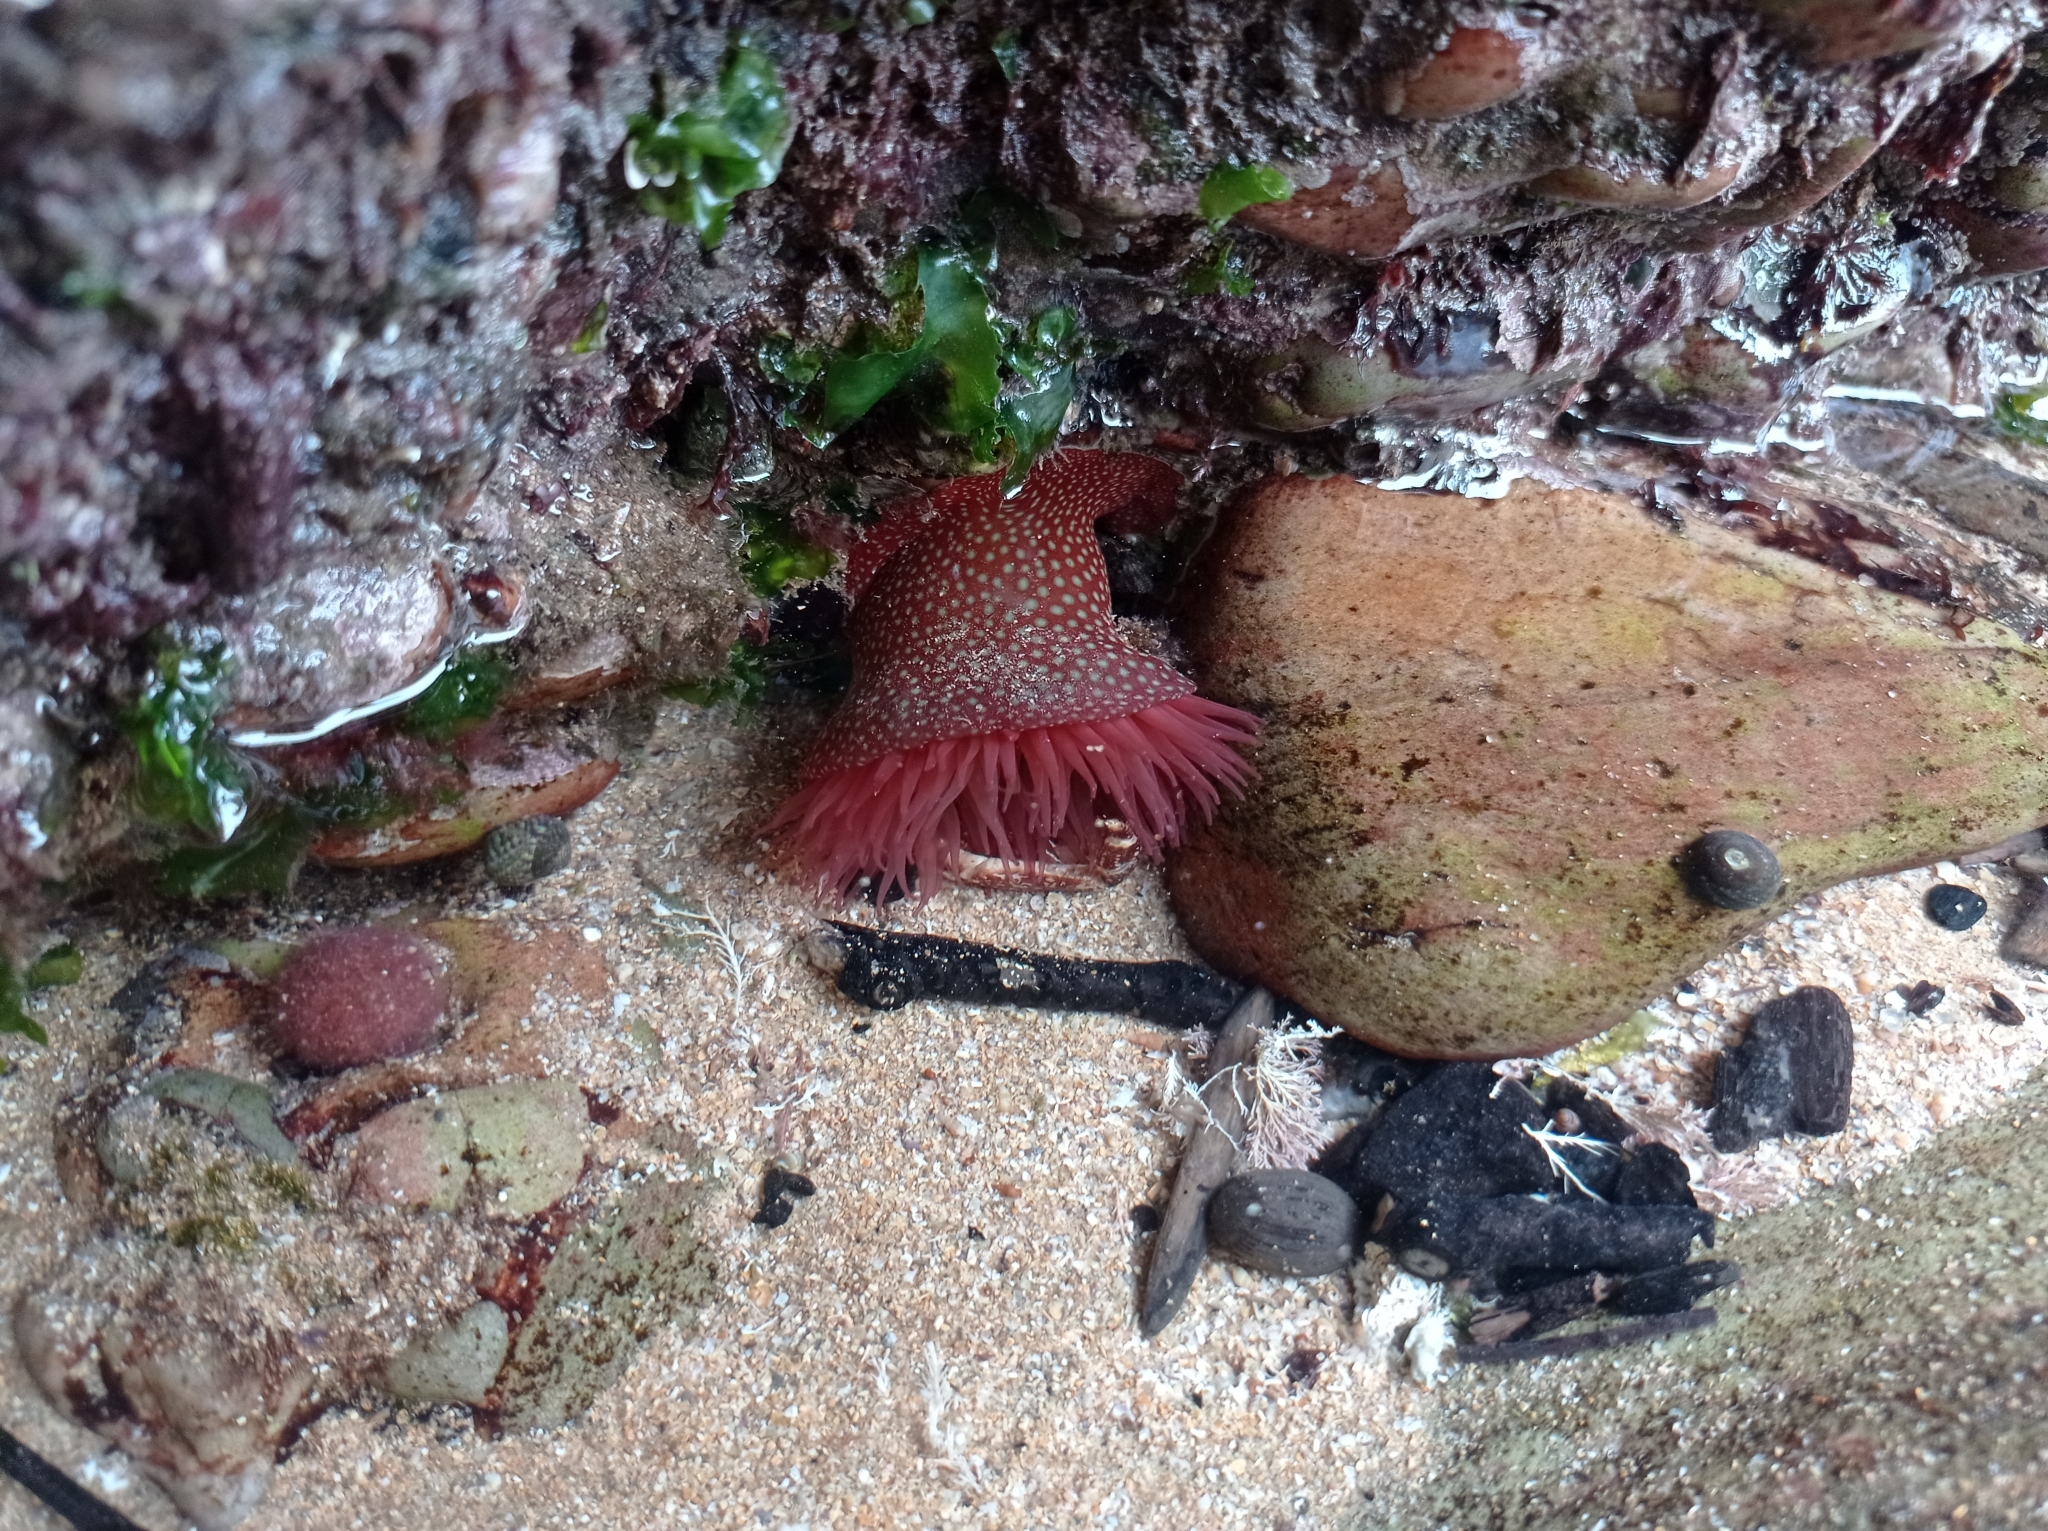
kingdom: Animalia
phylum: Cnidaria
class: Anthozoa
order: Actiniaria
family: Actiniidae
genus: Actinia
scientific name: Actinia fragacea
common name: Strawberry anemone
